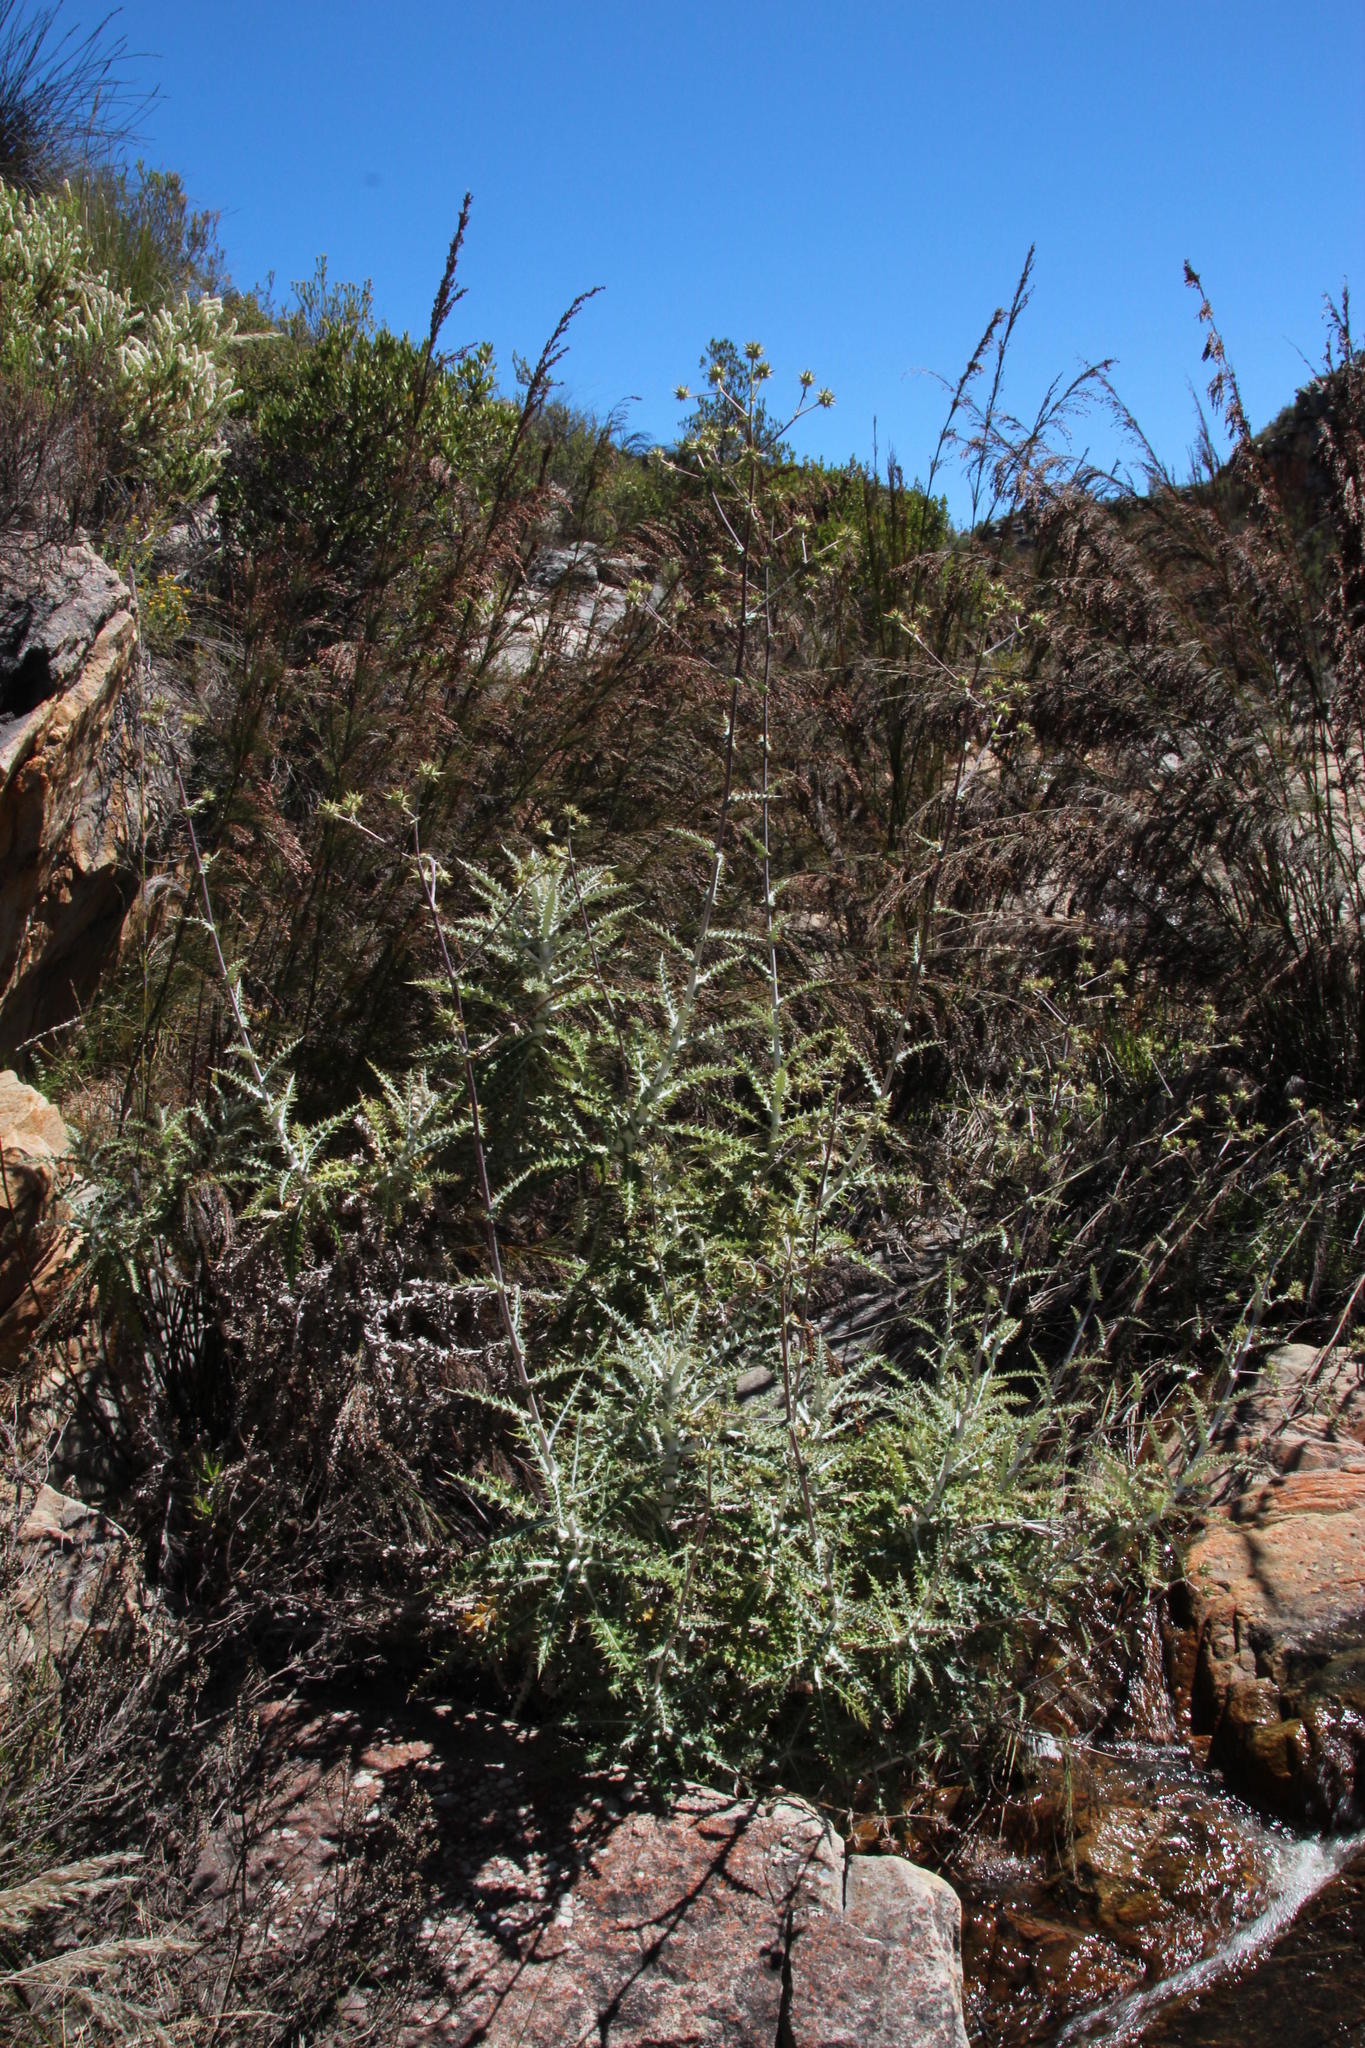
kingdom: Plantae
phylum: Tracheophyta
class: Magnoliopsida
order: Asterales
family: Asteraceae
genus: Berkheya
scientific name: Berkheya heterophylla
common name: Prickly gousblom
